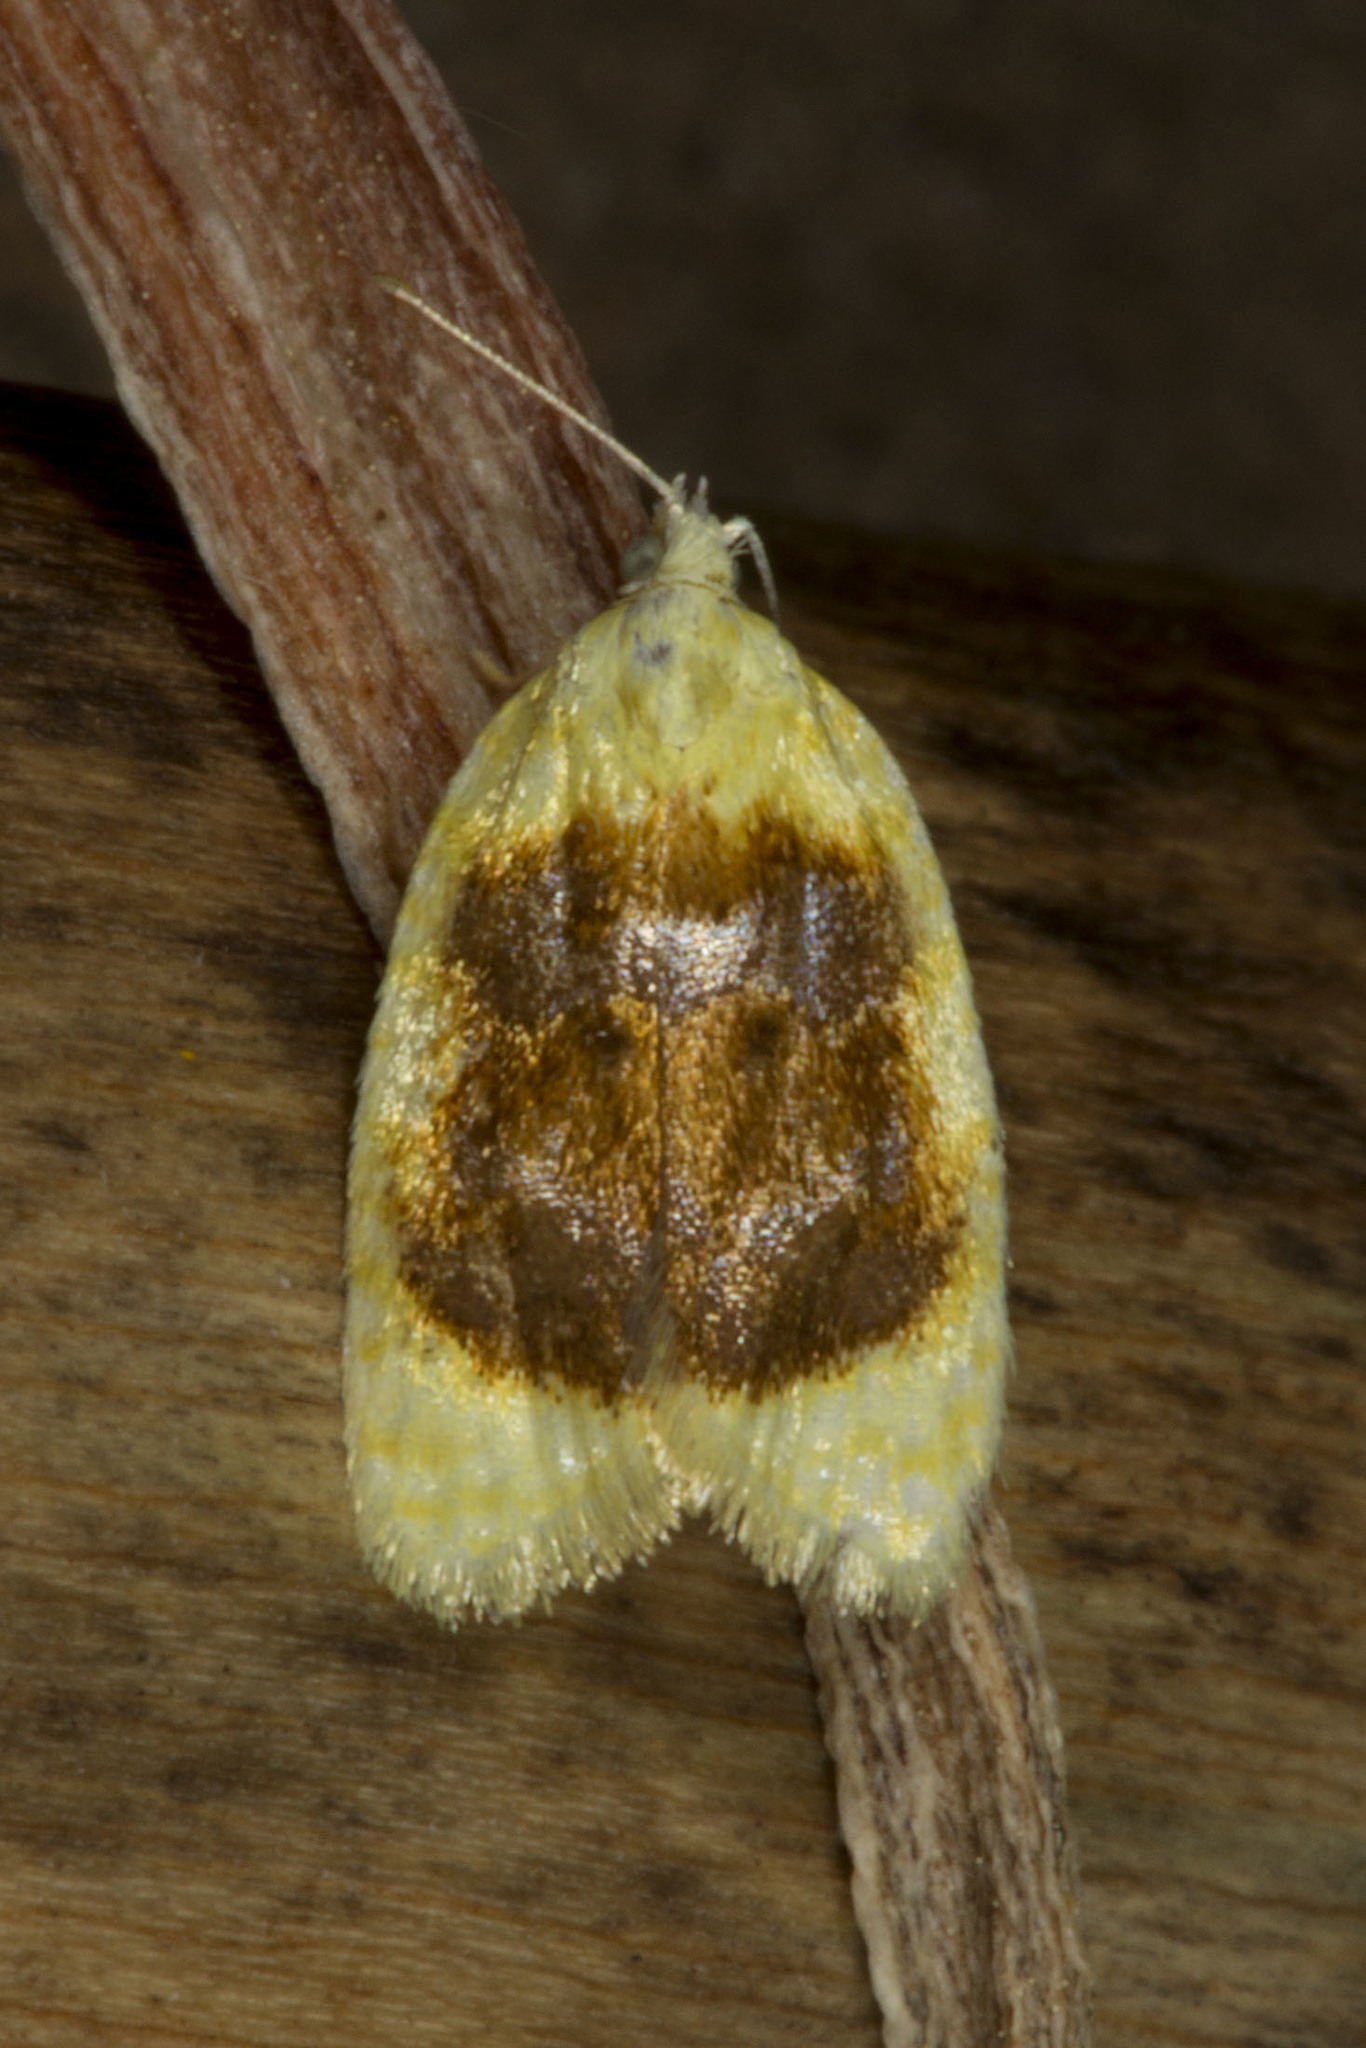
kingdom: Animalia
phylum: Arthropoda
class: Insecta
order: Lepidoptera
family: Tortricidae
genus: Acleris
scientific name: Acleris semipurpurana
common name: Oak leaftier moth
